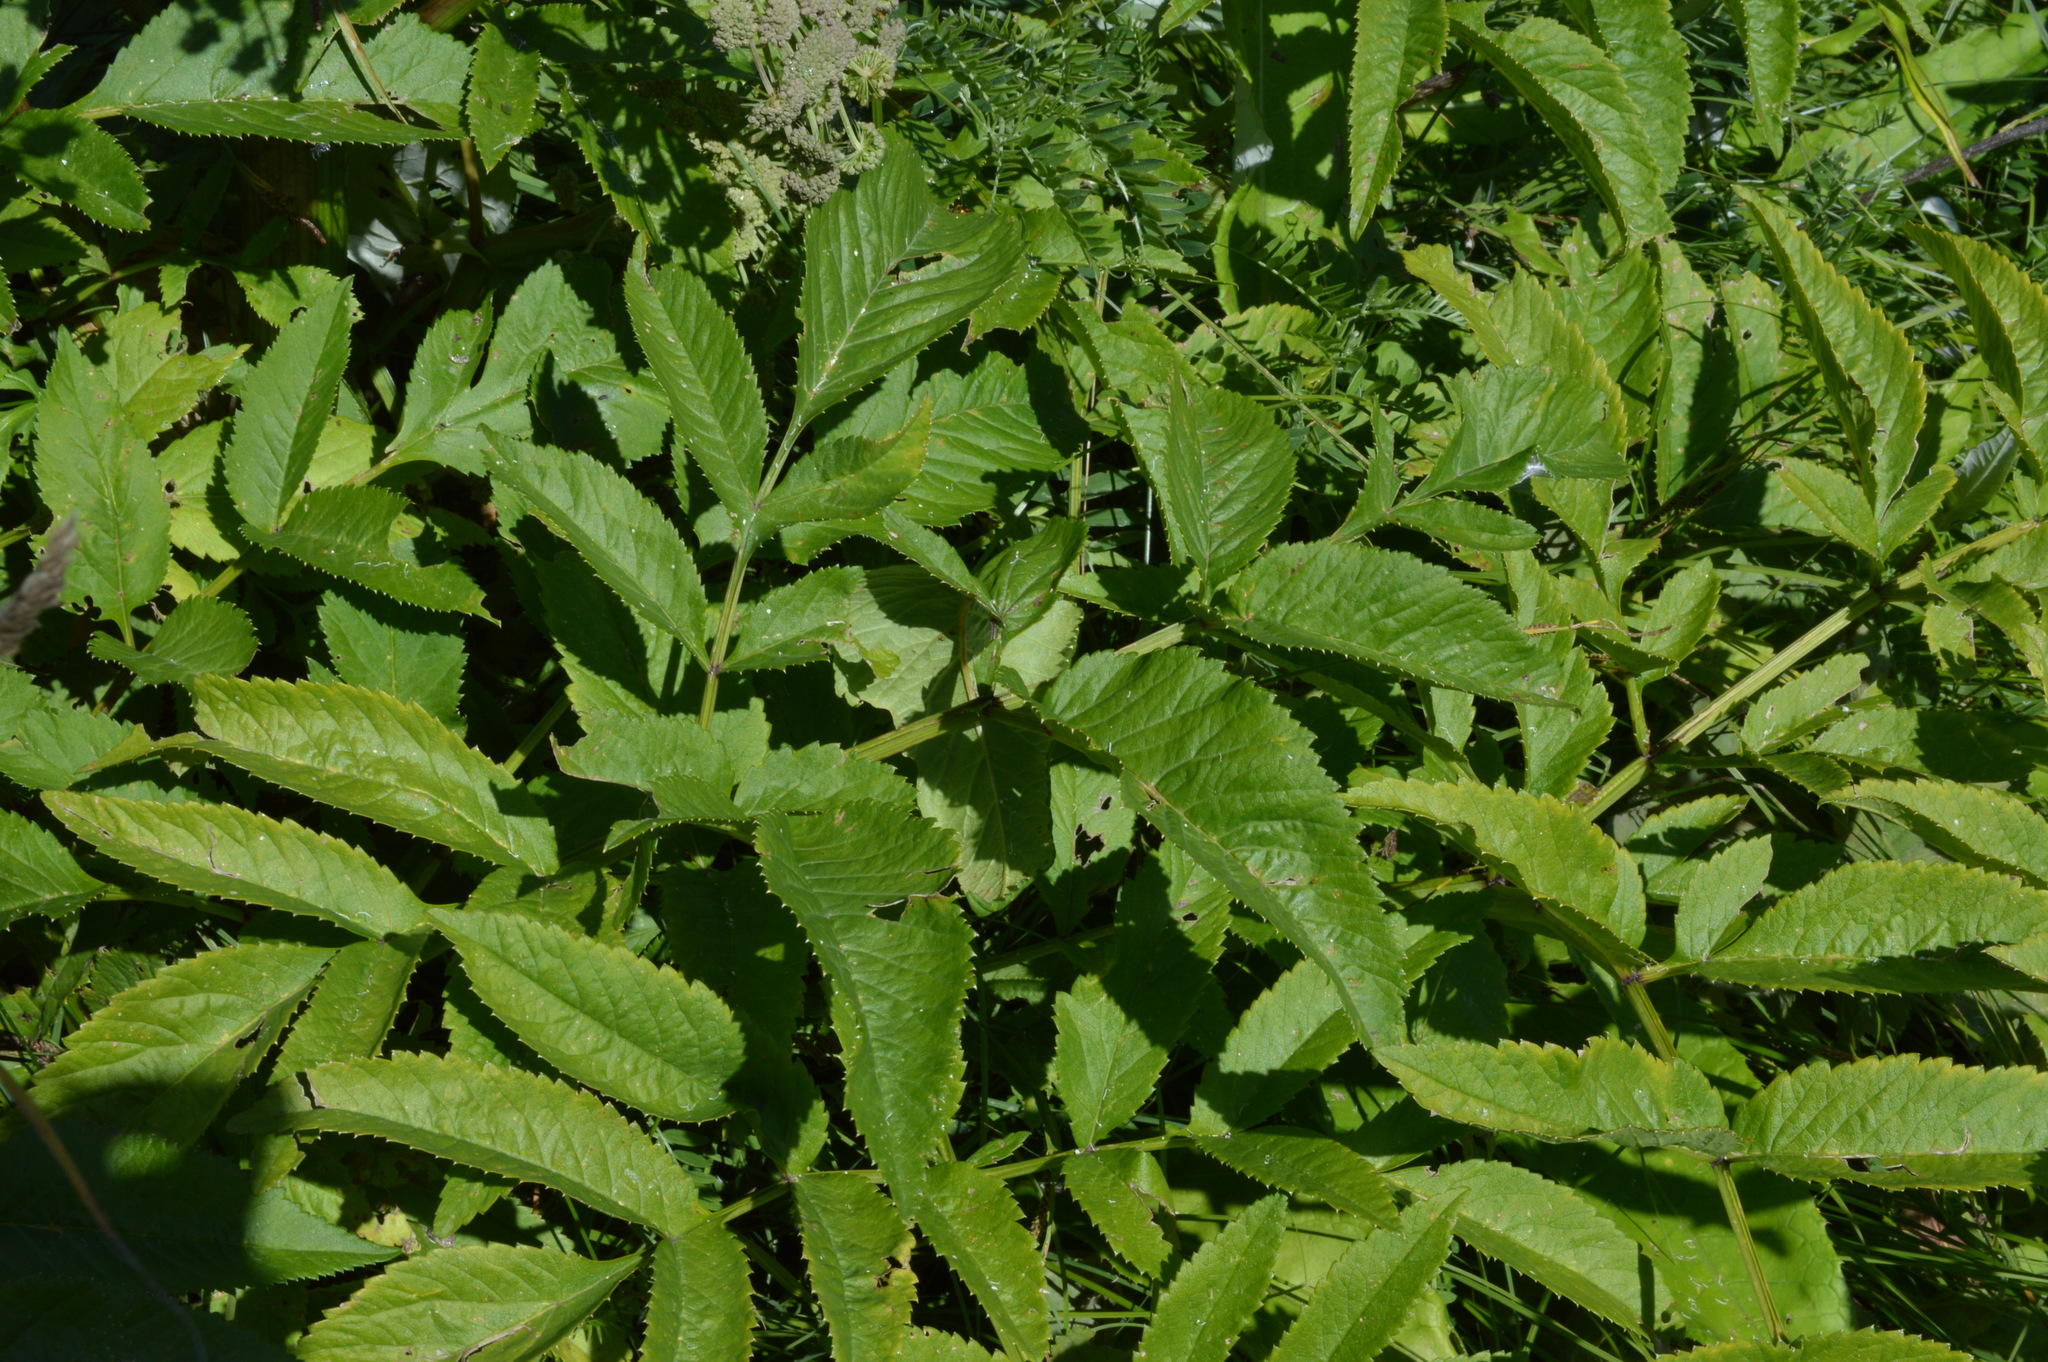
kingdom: Plantae
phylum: Tracheophyta
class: Magnoliopsida
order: Apiales
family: Apiaceae
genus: Angelica
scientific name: Angelica sylvestris
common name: Wild angelica
